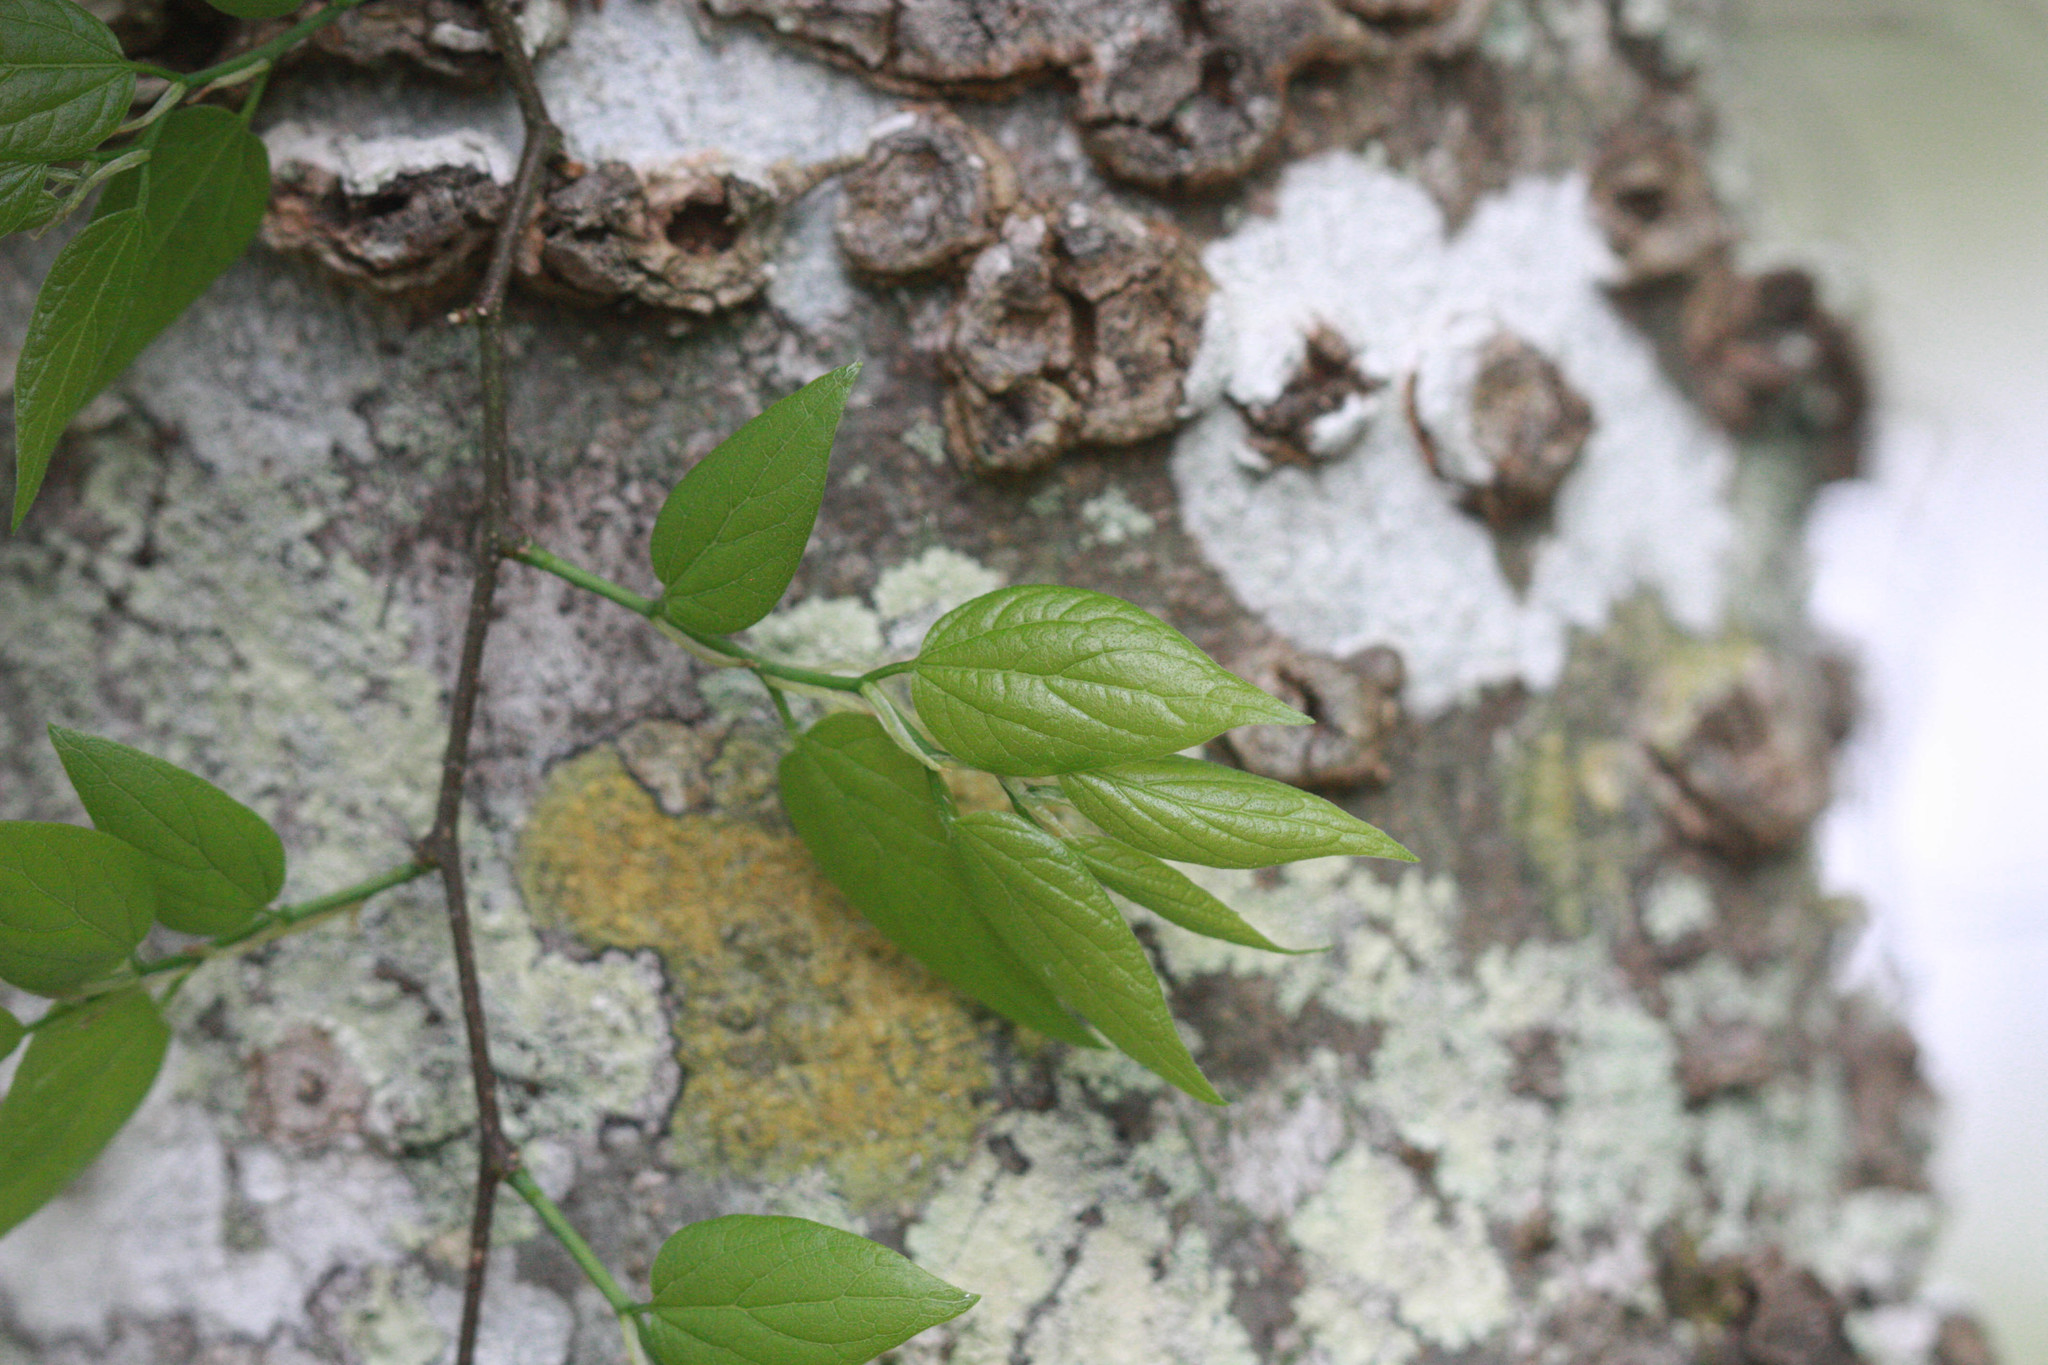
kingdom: Plantae
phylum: Tracheophyta
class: Magnoliopsida
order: Rosales
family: Cannabaceae
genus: Celtis
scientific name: Celtis laevigata
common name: Sugarberry
